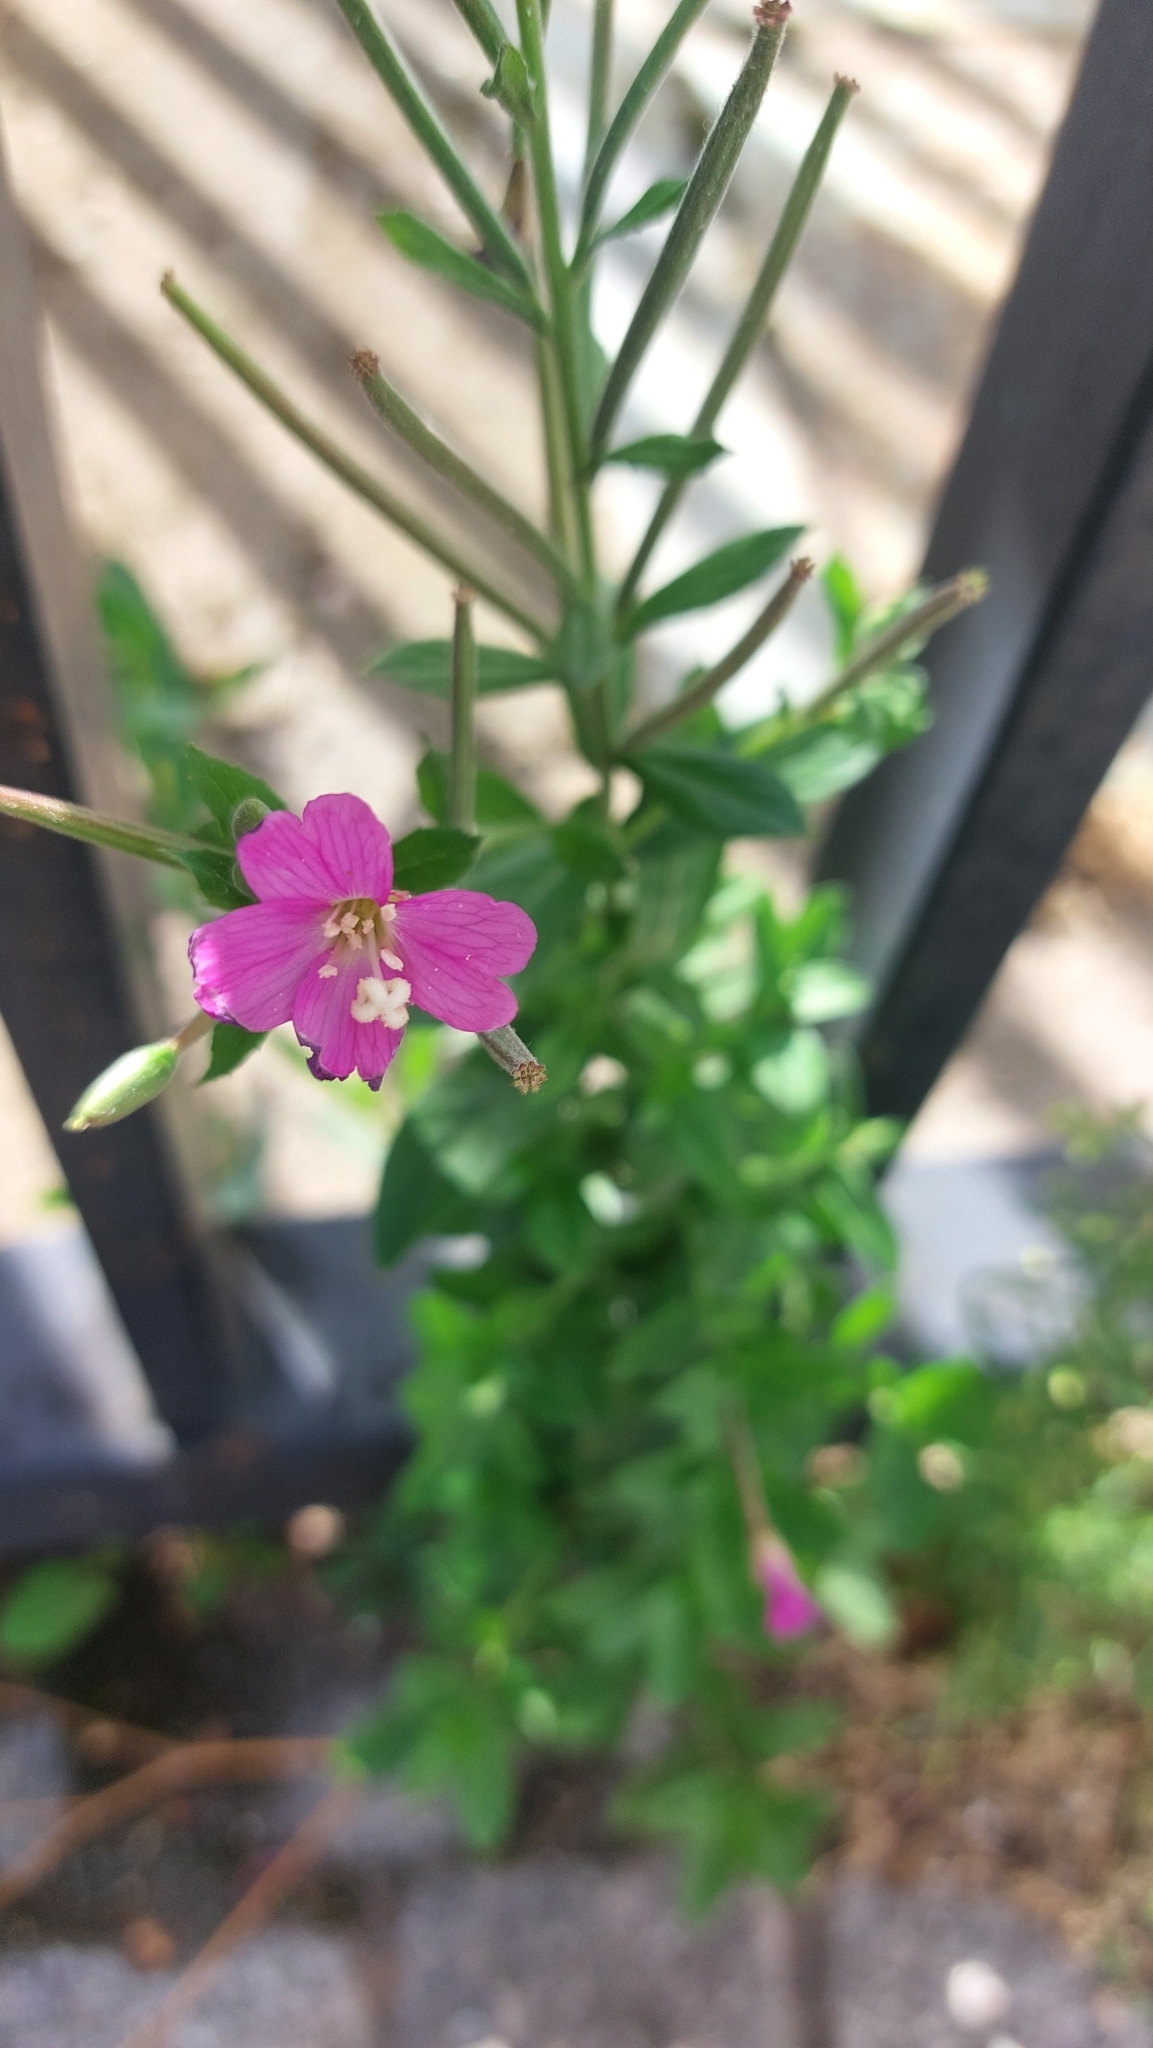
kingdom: Plantae
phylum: Tracheophyta
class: Magnoliopsida
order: Myrtales
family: Onagraceae
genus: Epilobium
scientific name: Epilobium hirsutum
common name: Great willowherb
